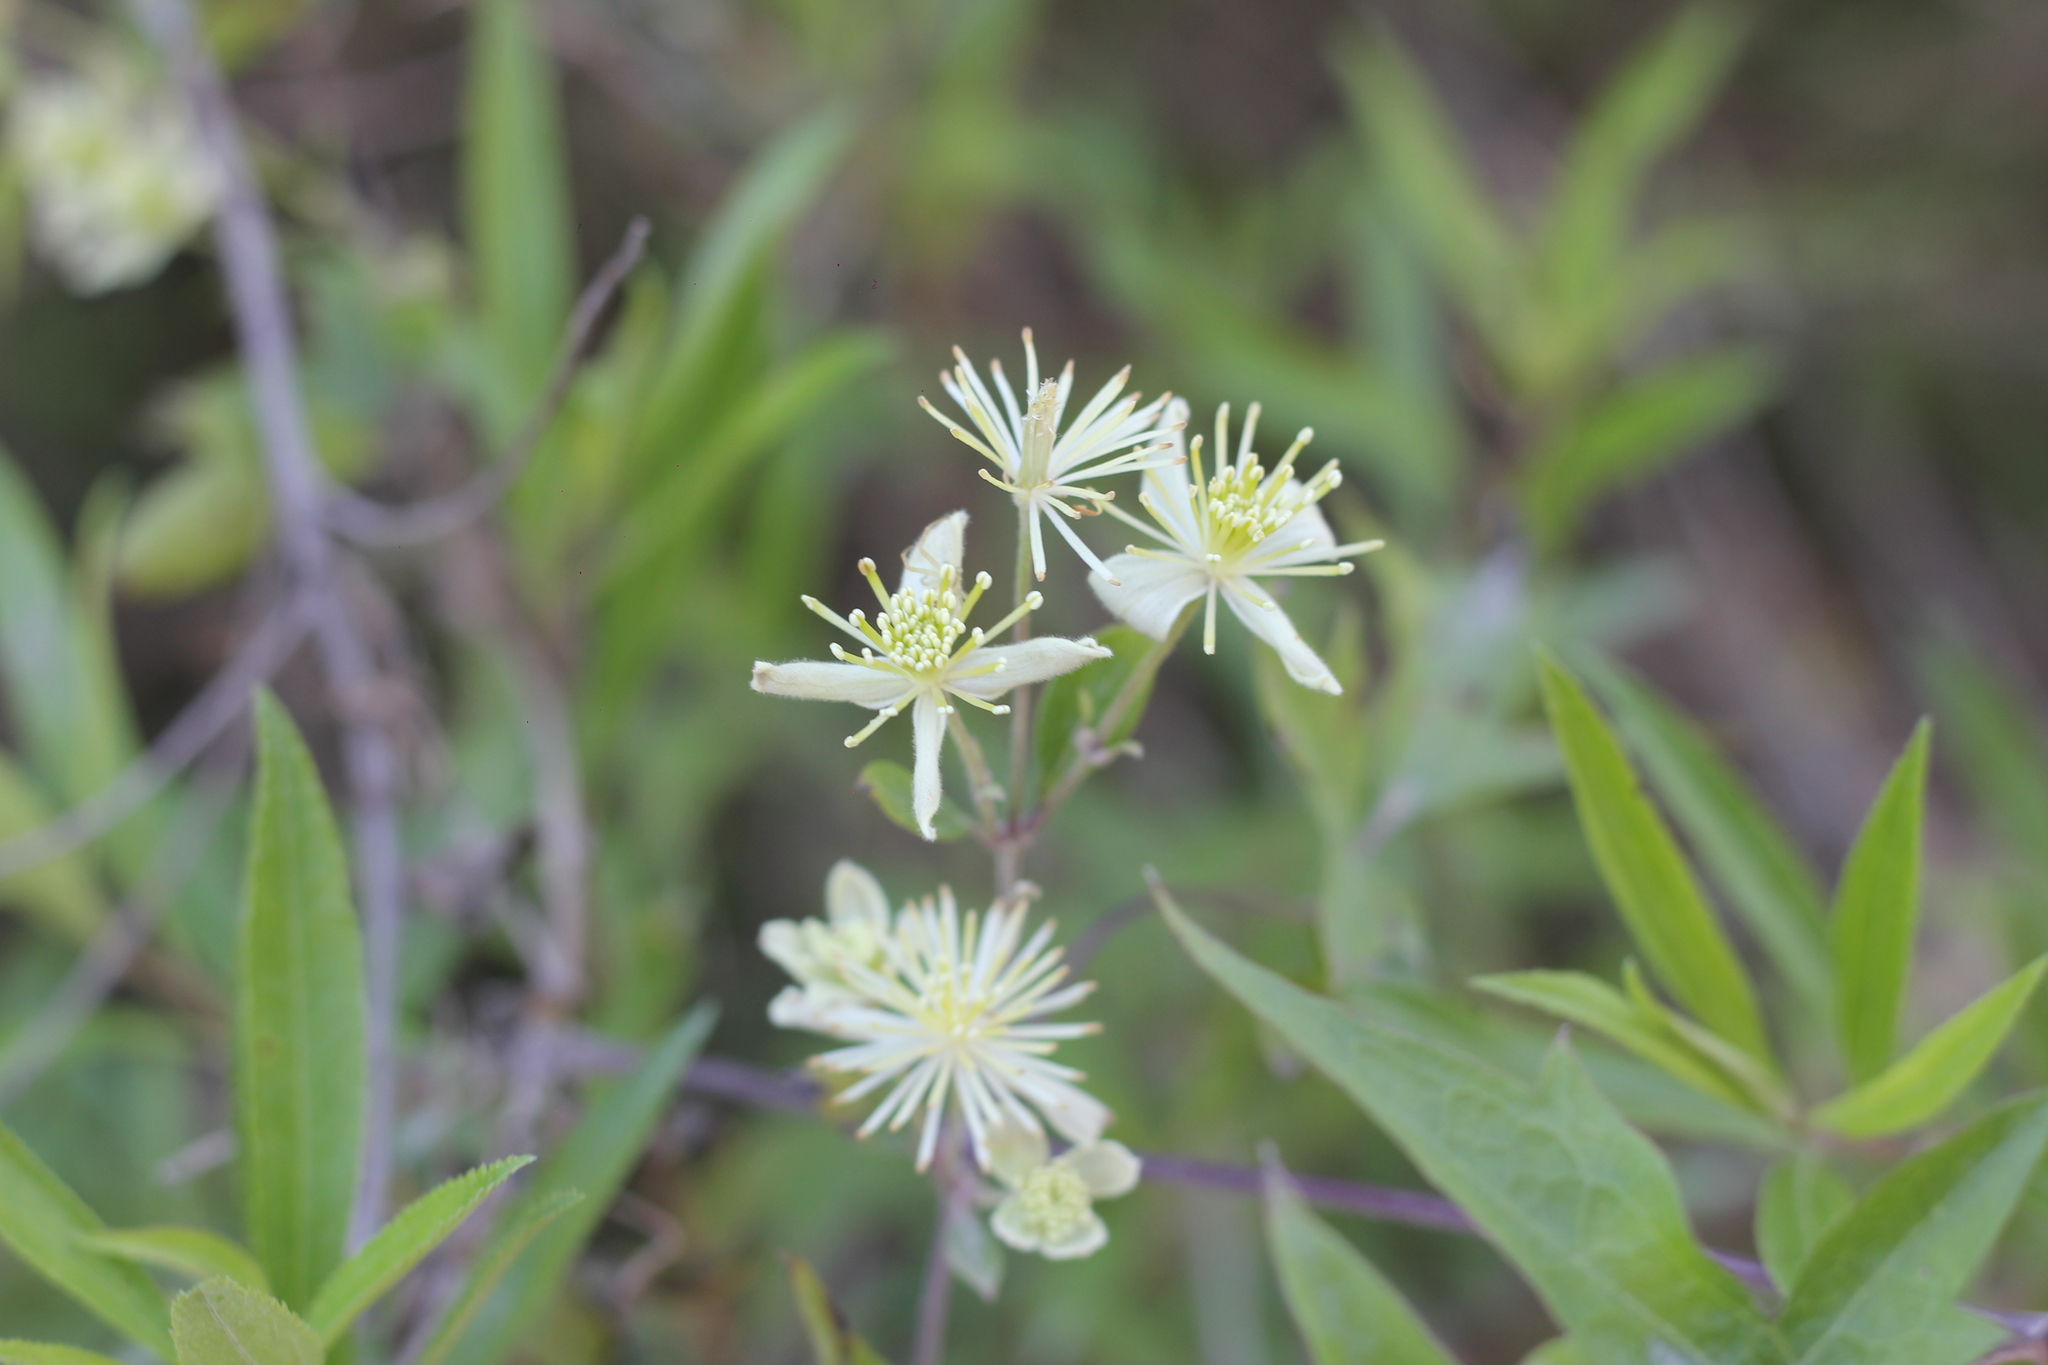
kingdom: Plantae
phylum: Tracheophyta
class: Magnoliopsida
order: Ranunculales
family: Ranunculaceae
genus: Clematis
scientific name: Clematis montevidensis
